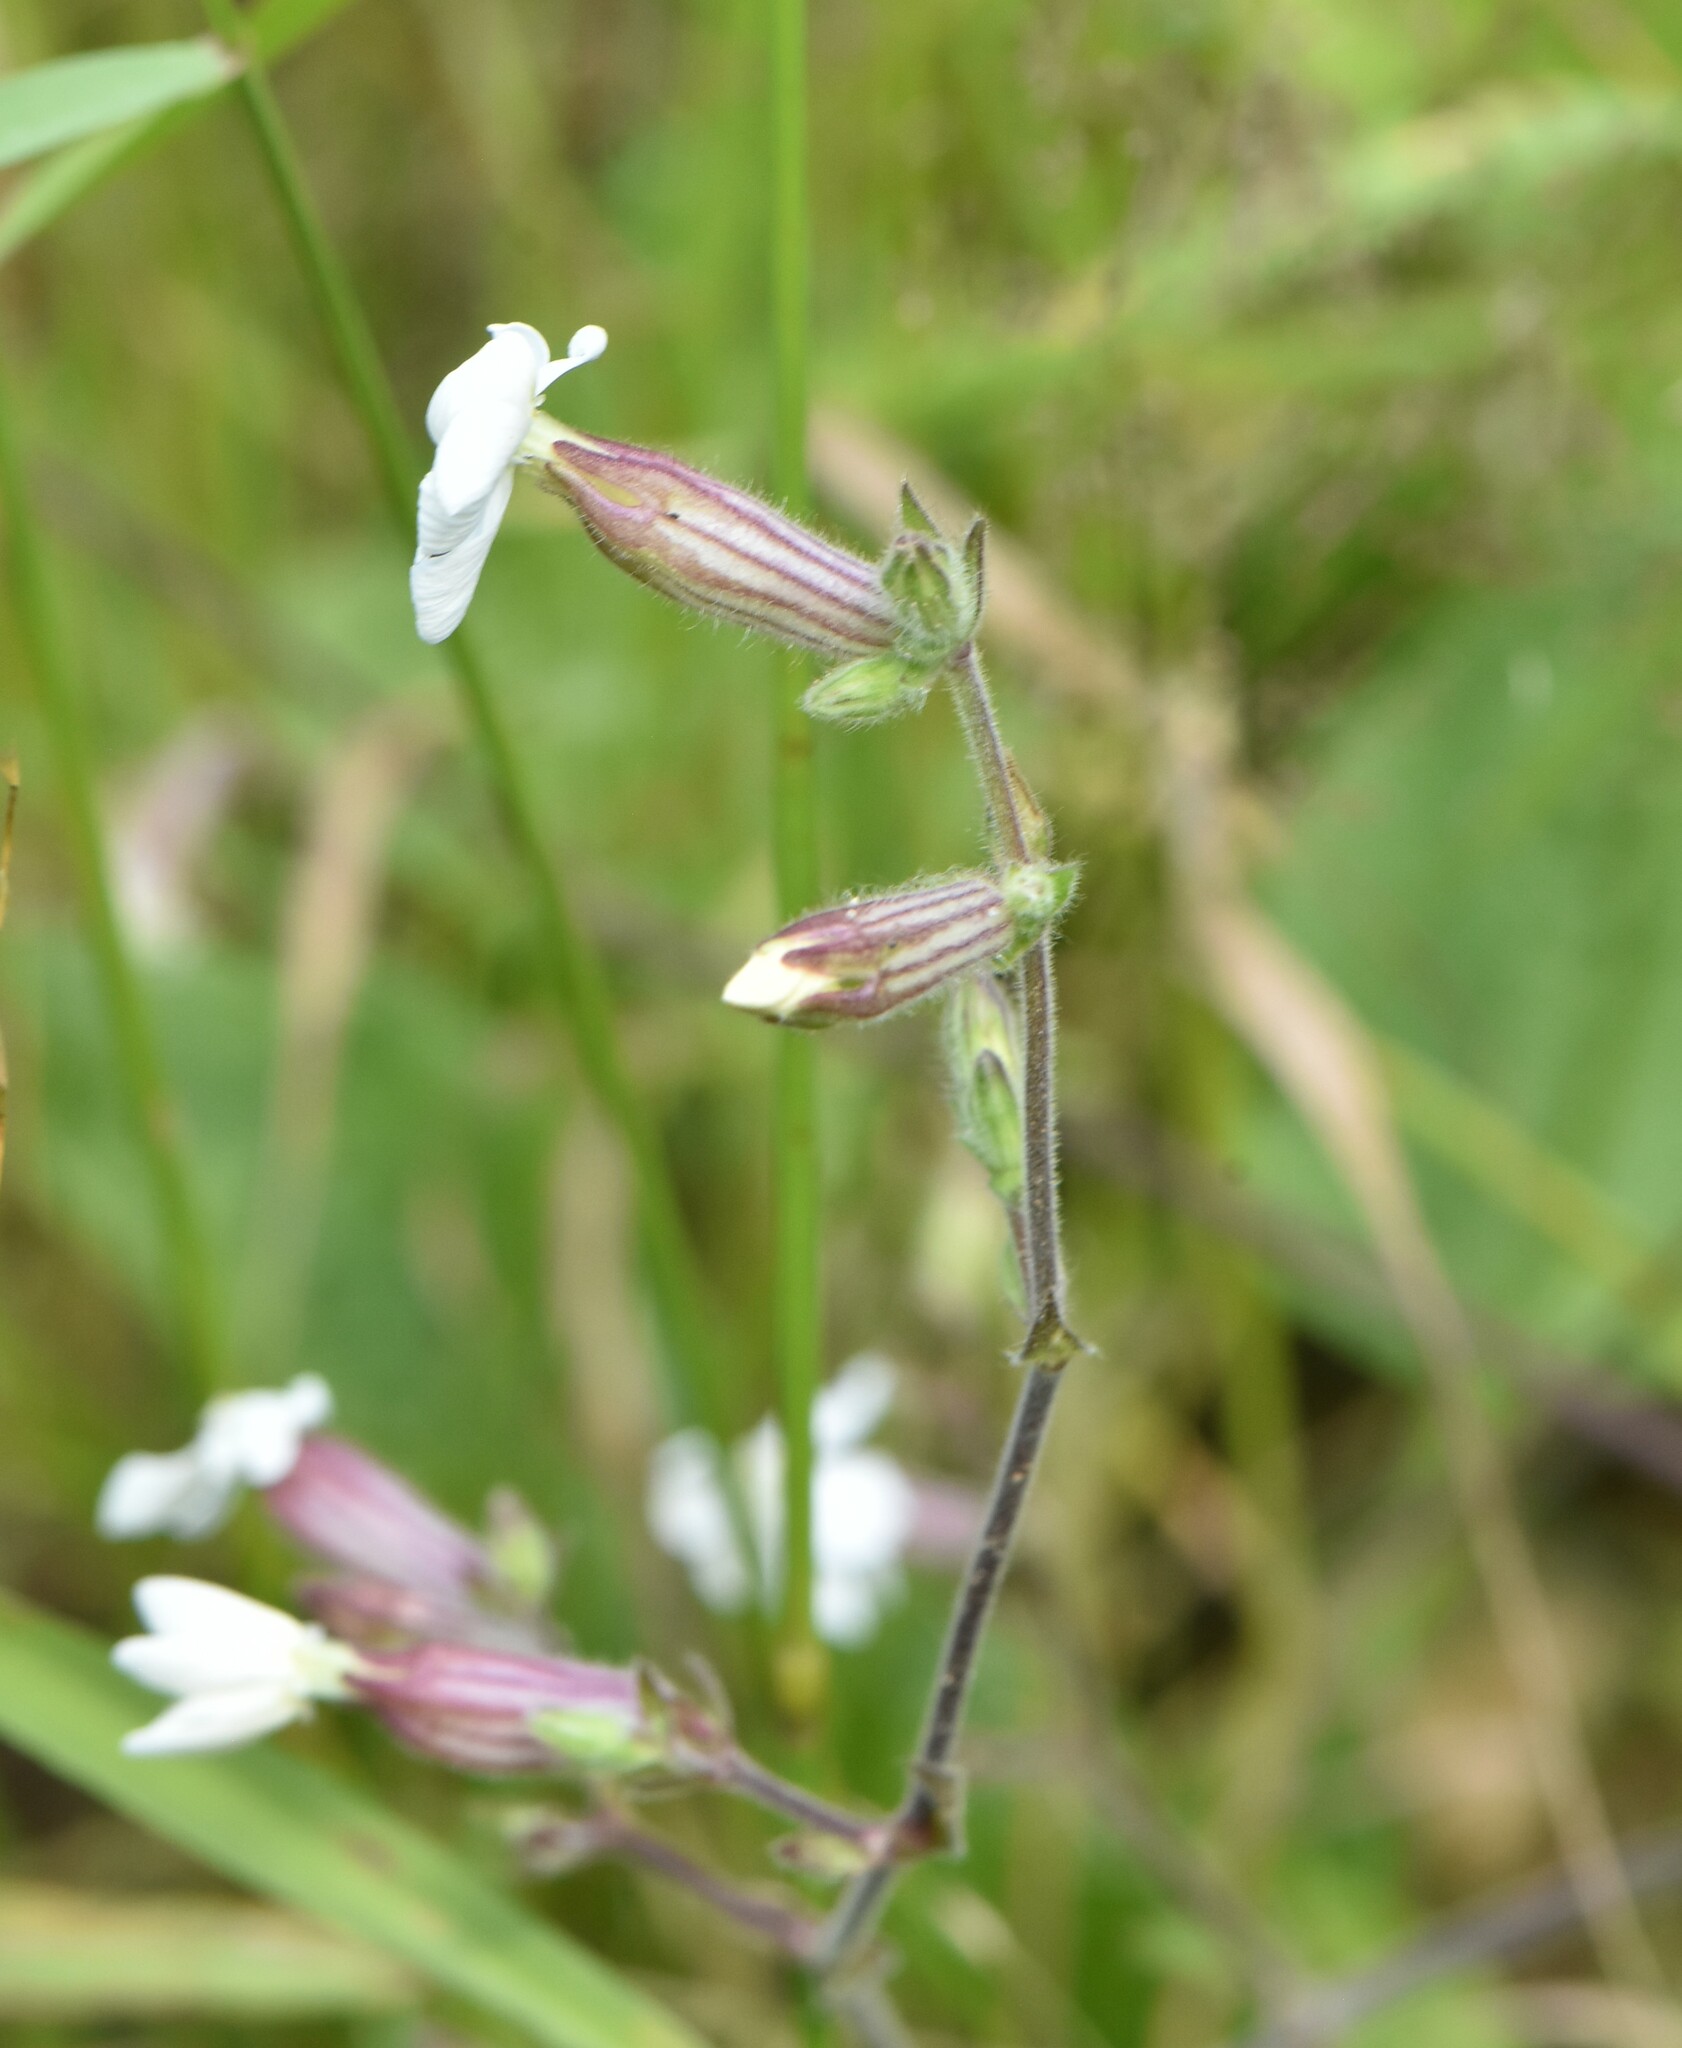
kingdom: Plantae
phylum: Tracheophyta
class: Magnoliopsida
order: Caryophyllales
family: Caryophyllaceae
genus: Silene
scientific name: Silene latifolia
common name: White campion
